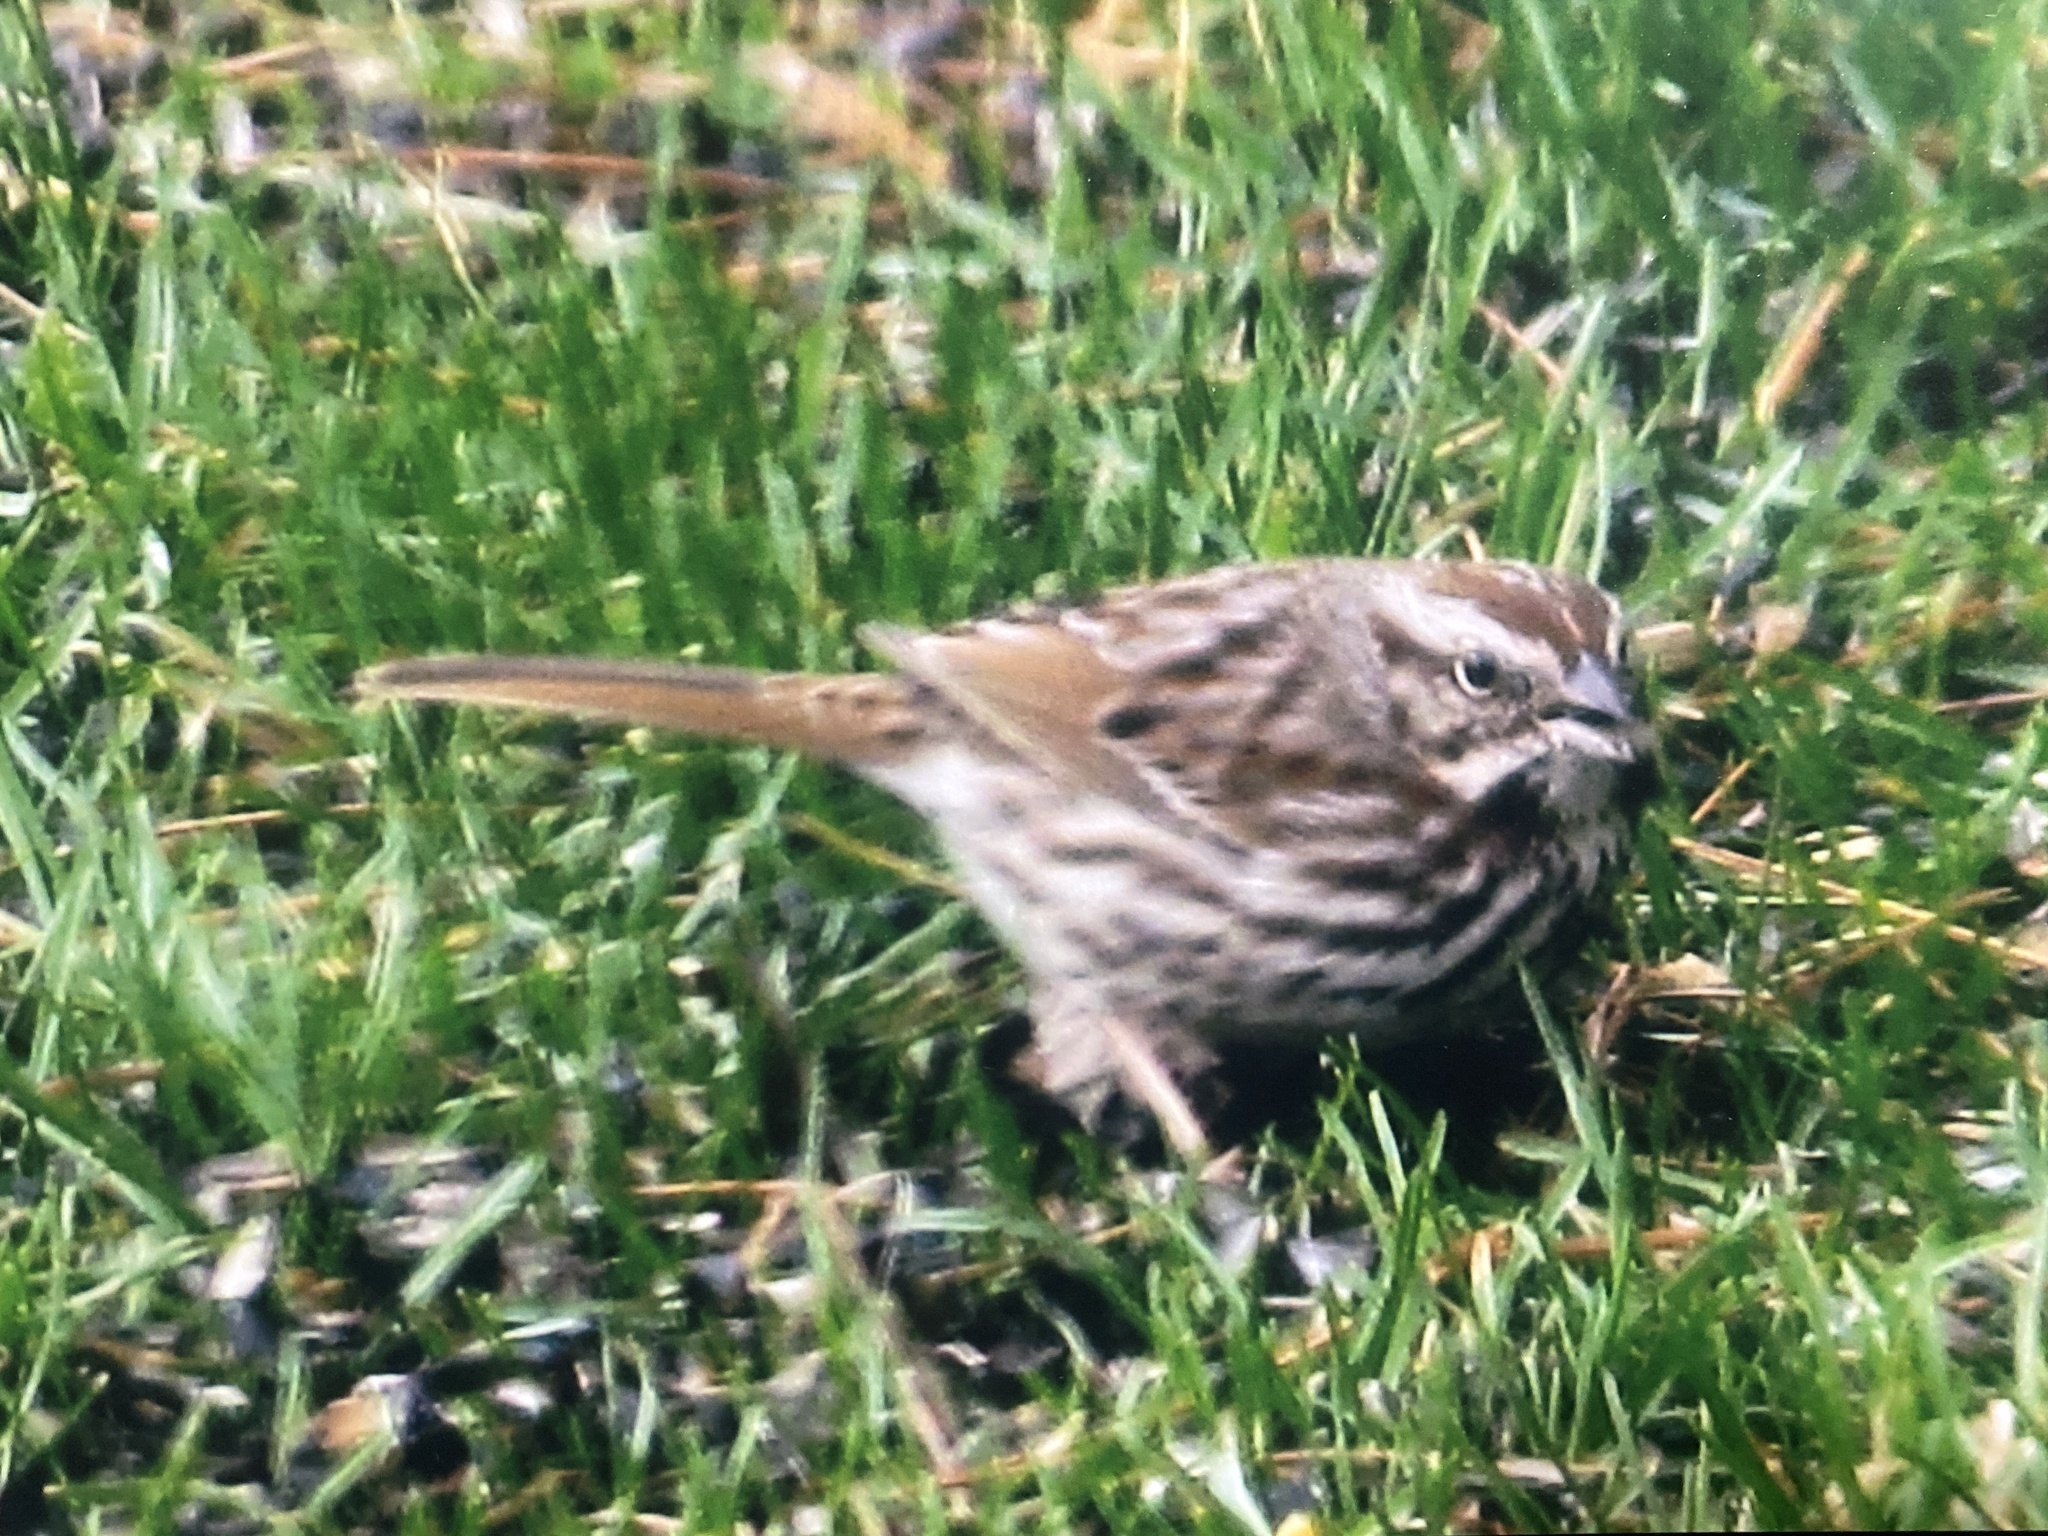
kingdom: Animalia
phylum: Chordata
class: Aves
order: Passeriformes
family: Passerellidae
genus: Melospiza
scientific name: Melospiza melodia
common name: Song sparrow
